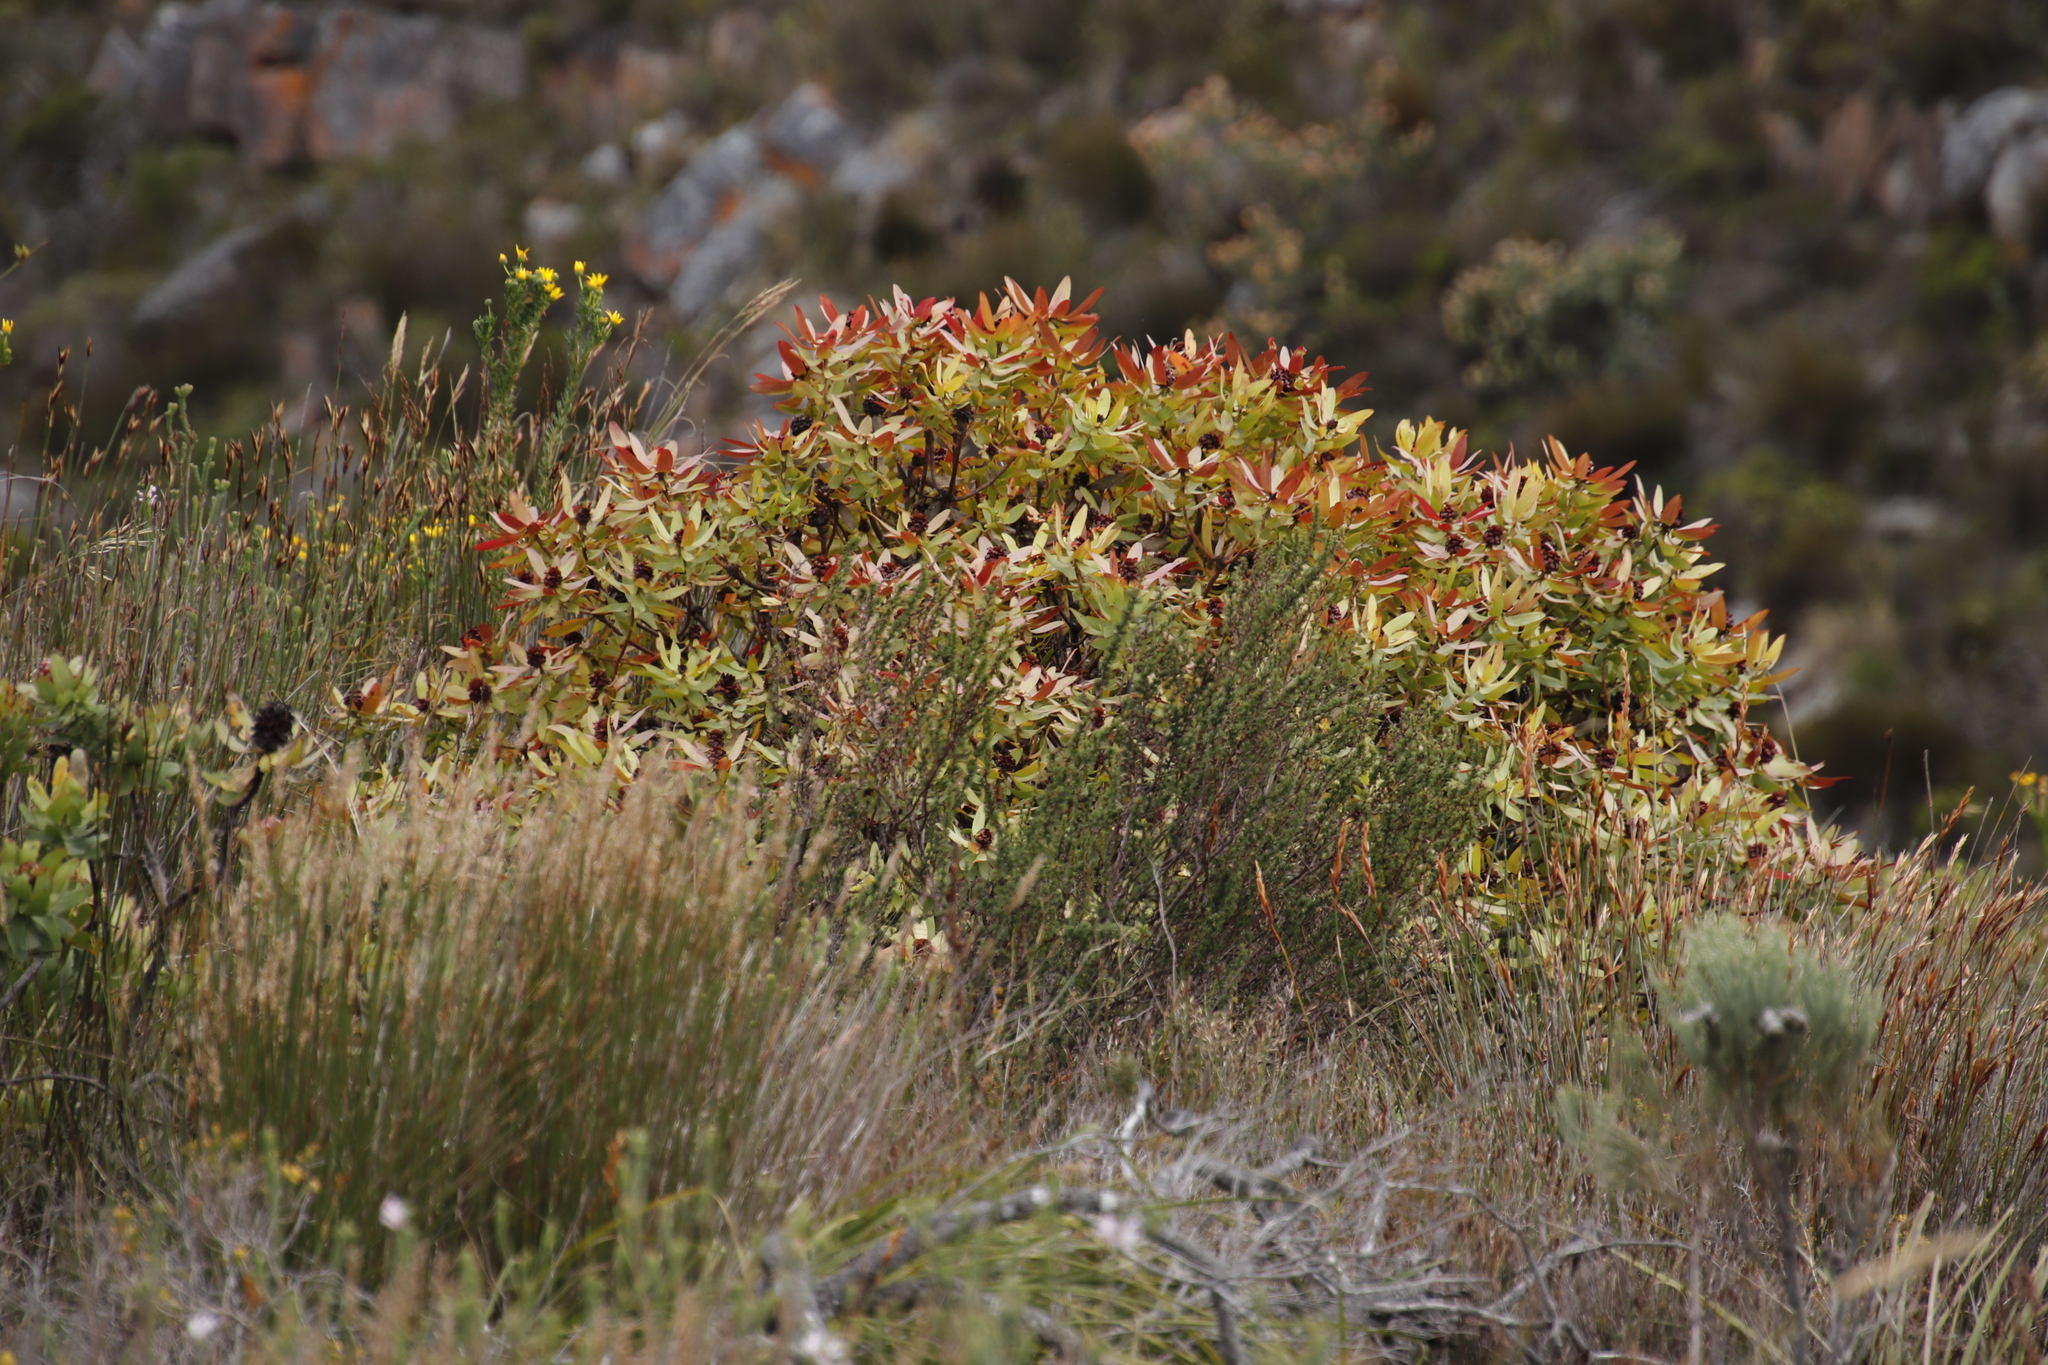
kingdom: Plantae
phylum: Tracheophyta
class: Magnoliopsida
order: Proteales
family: Proteaceae
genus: Leucadendron
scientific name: Leucadendron tinctum
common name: Spicy conebush
